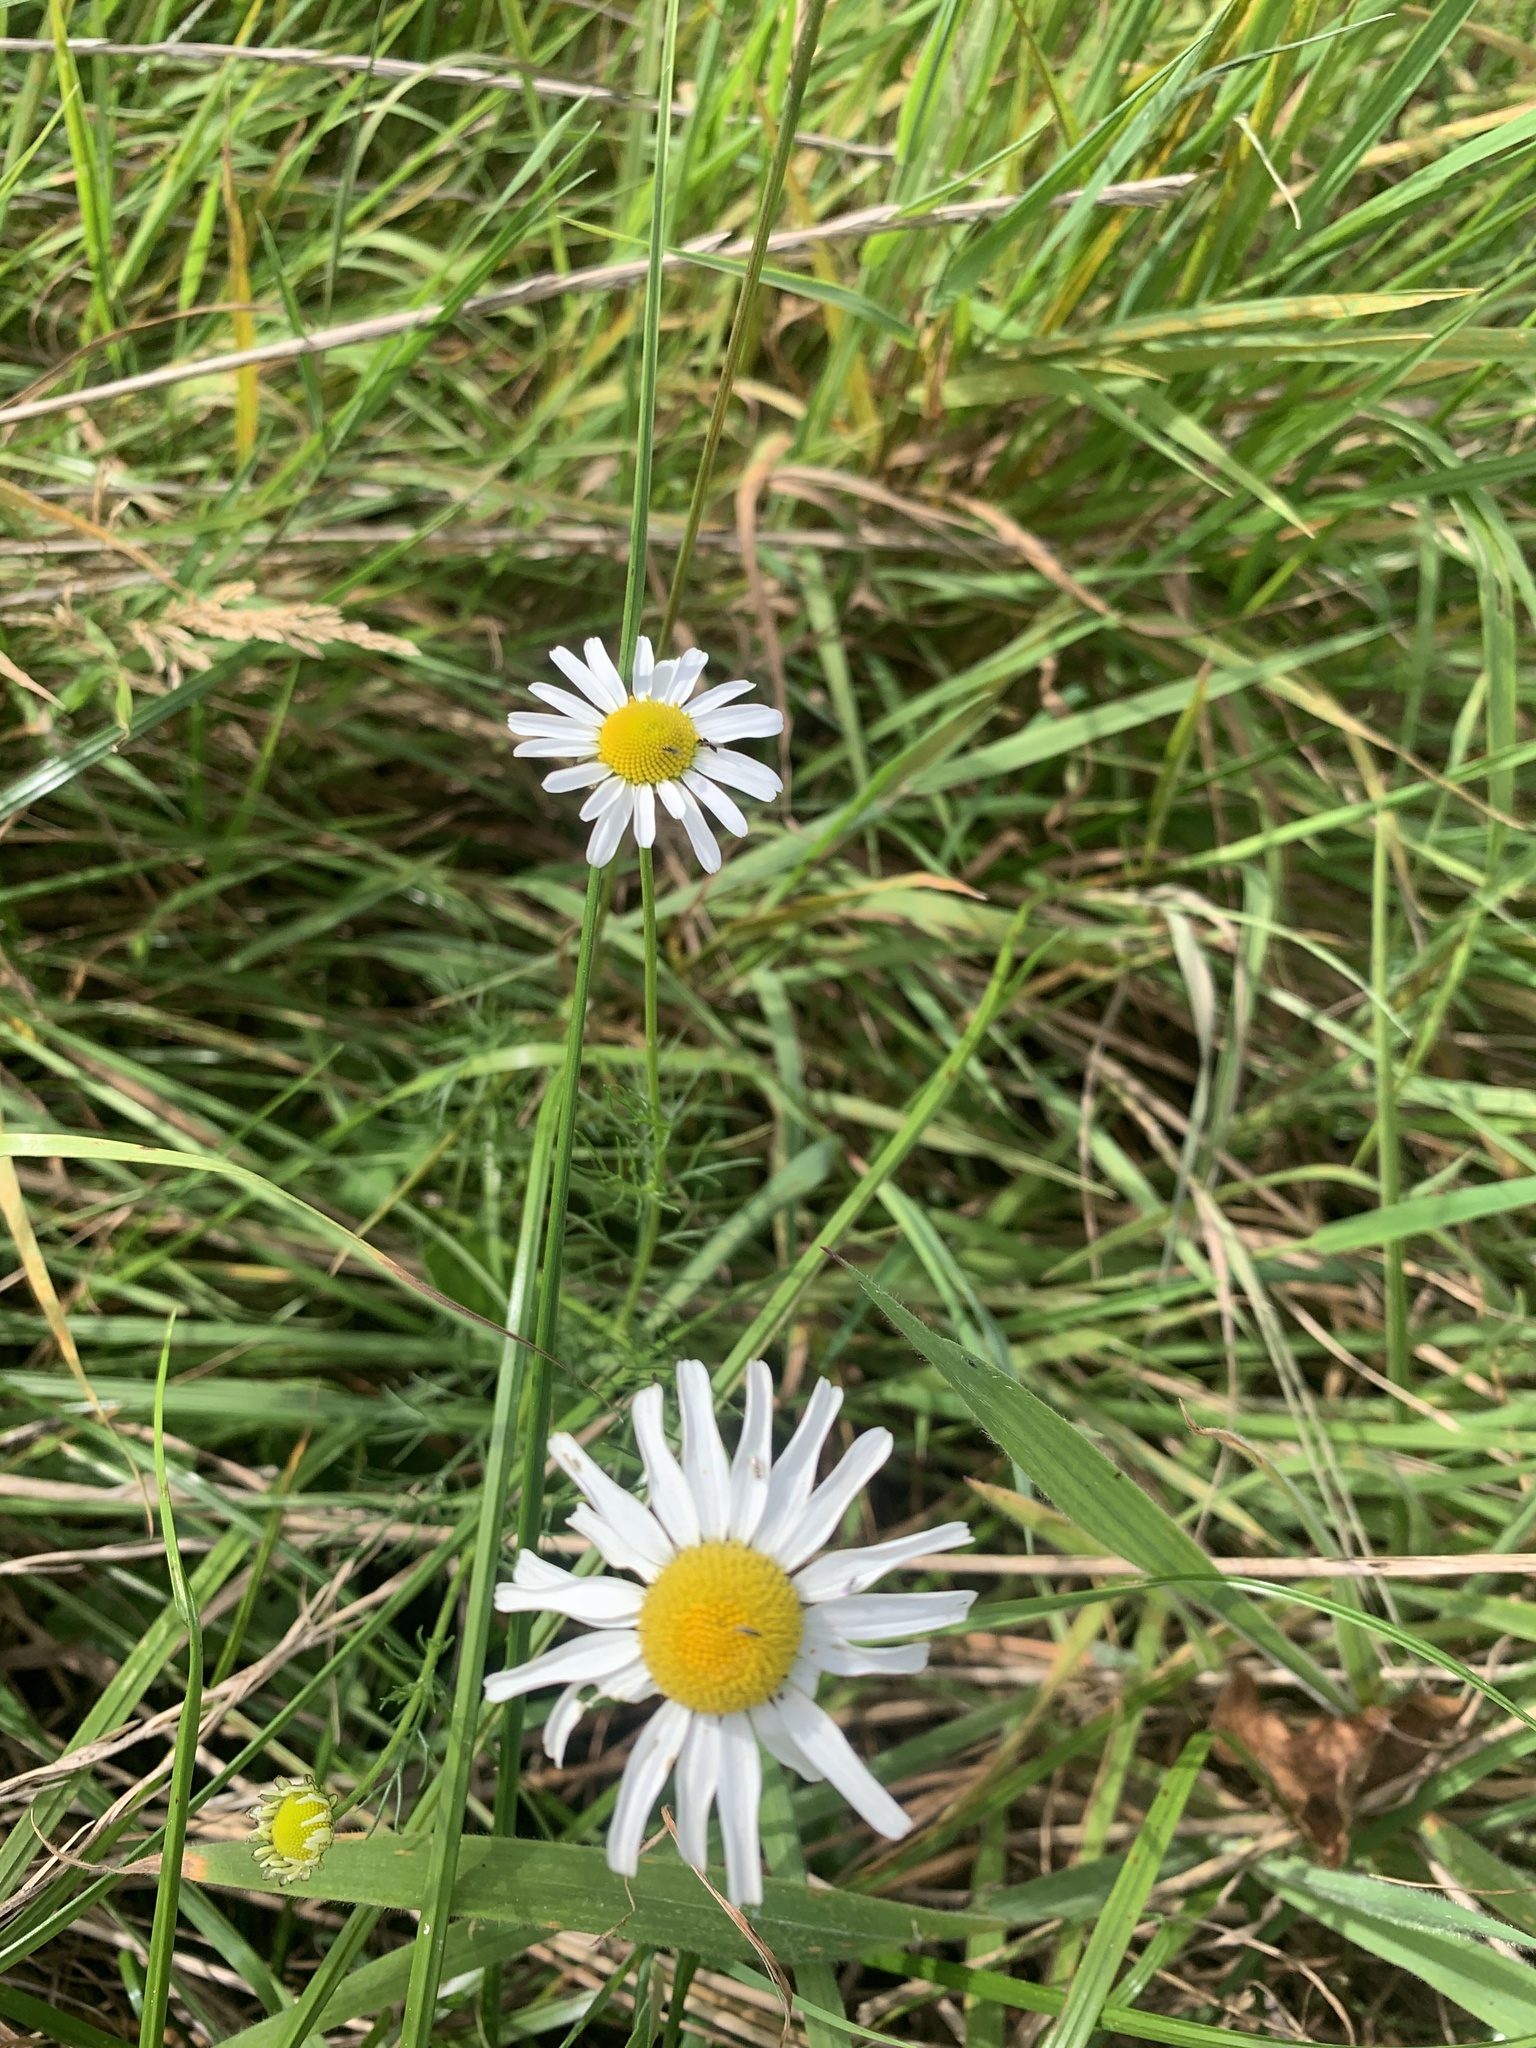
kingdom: Plantae
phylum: Tracheophyta
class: Magnoliopsida
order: Asterales
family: Asteraceae
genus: Tripleurospermum
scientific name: Tripleurospermum inodorum
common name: Scentless mayweed
